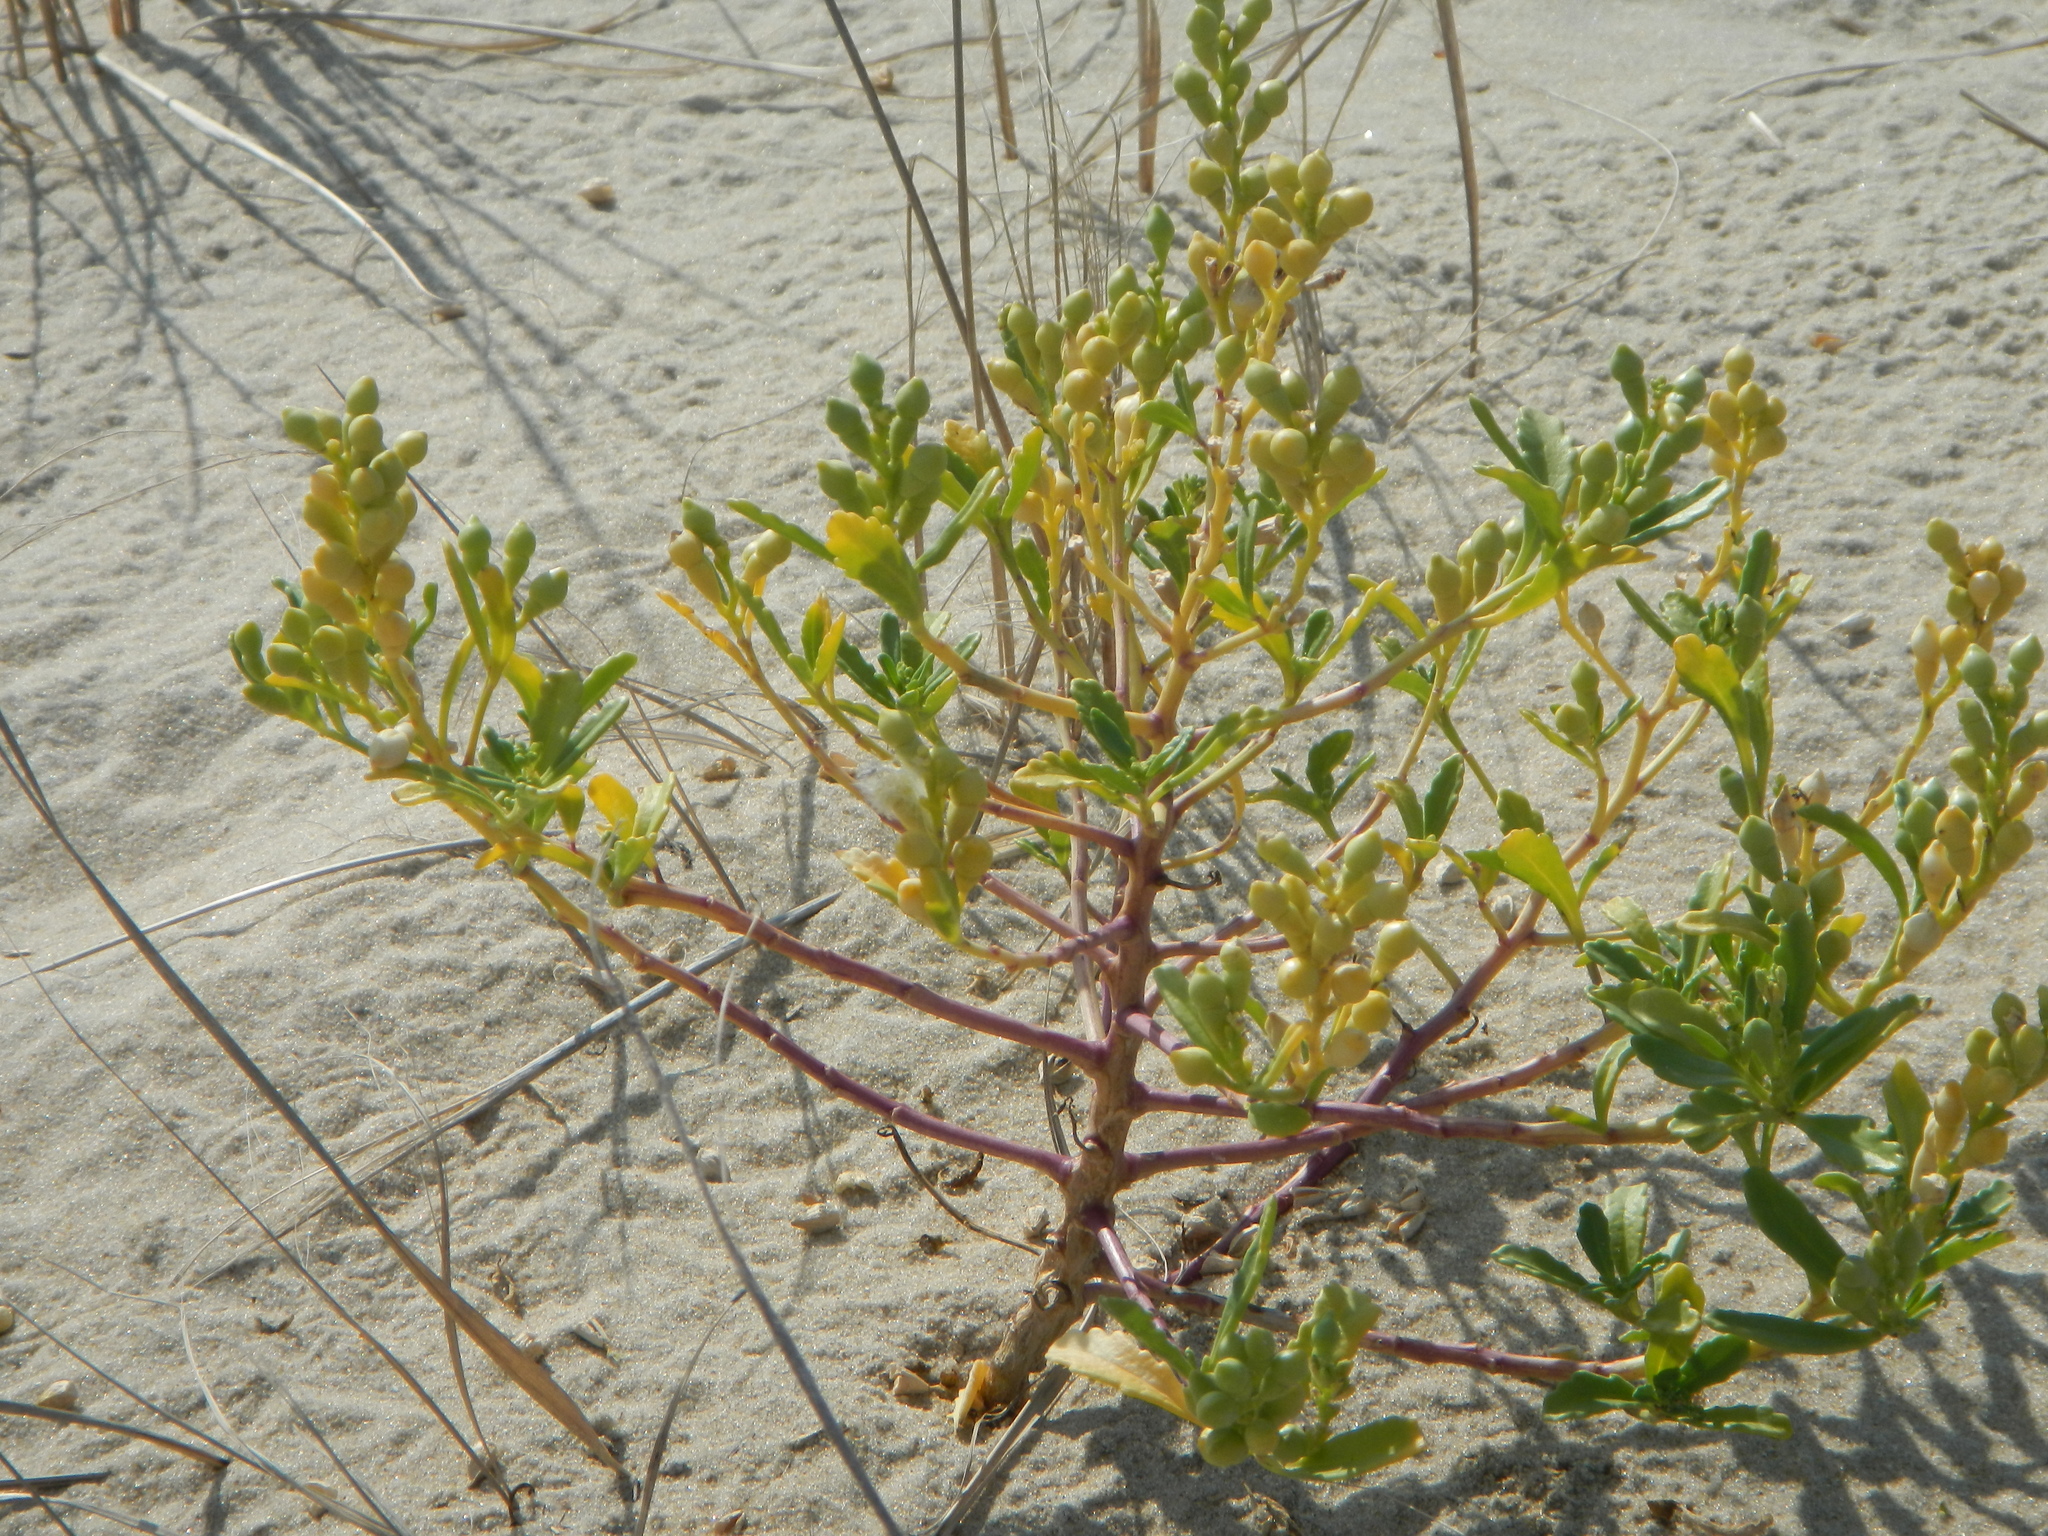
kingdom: Plantae
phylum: Tracheophyta
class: Magnoliopsida
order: Brassicales
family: Brassicaceae
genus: Cakile
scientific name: Cakile edentula
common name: American sea rocket
